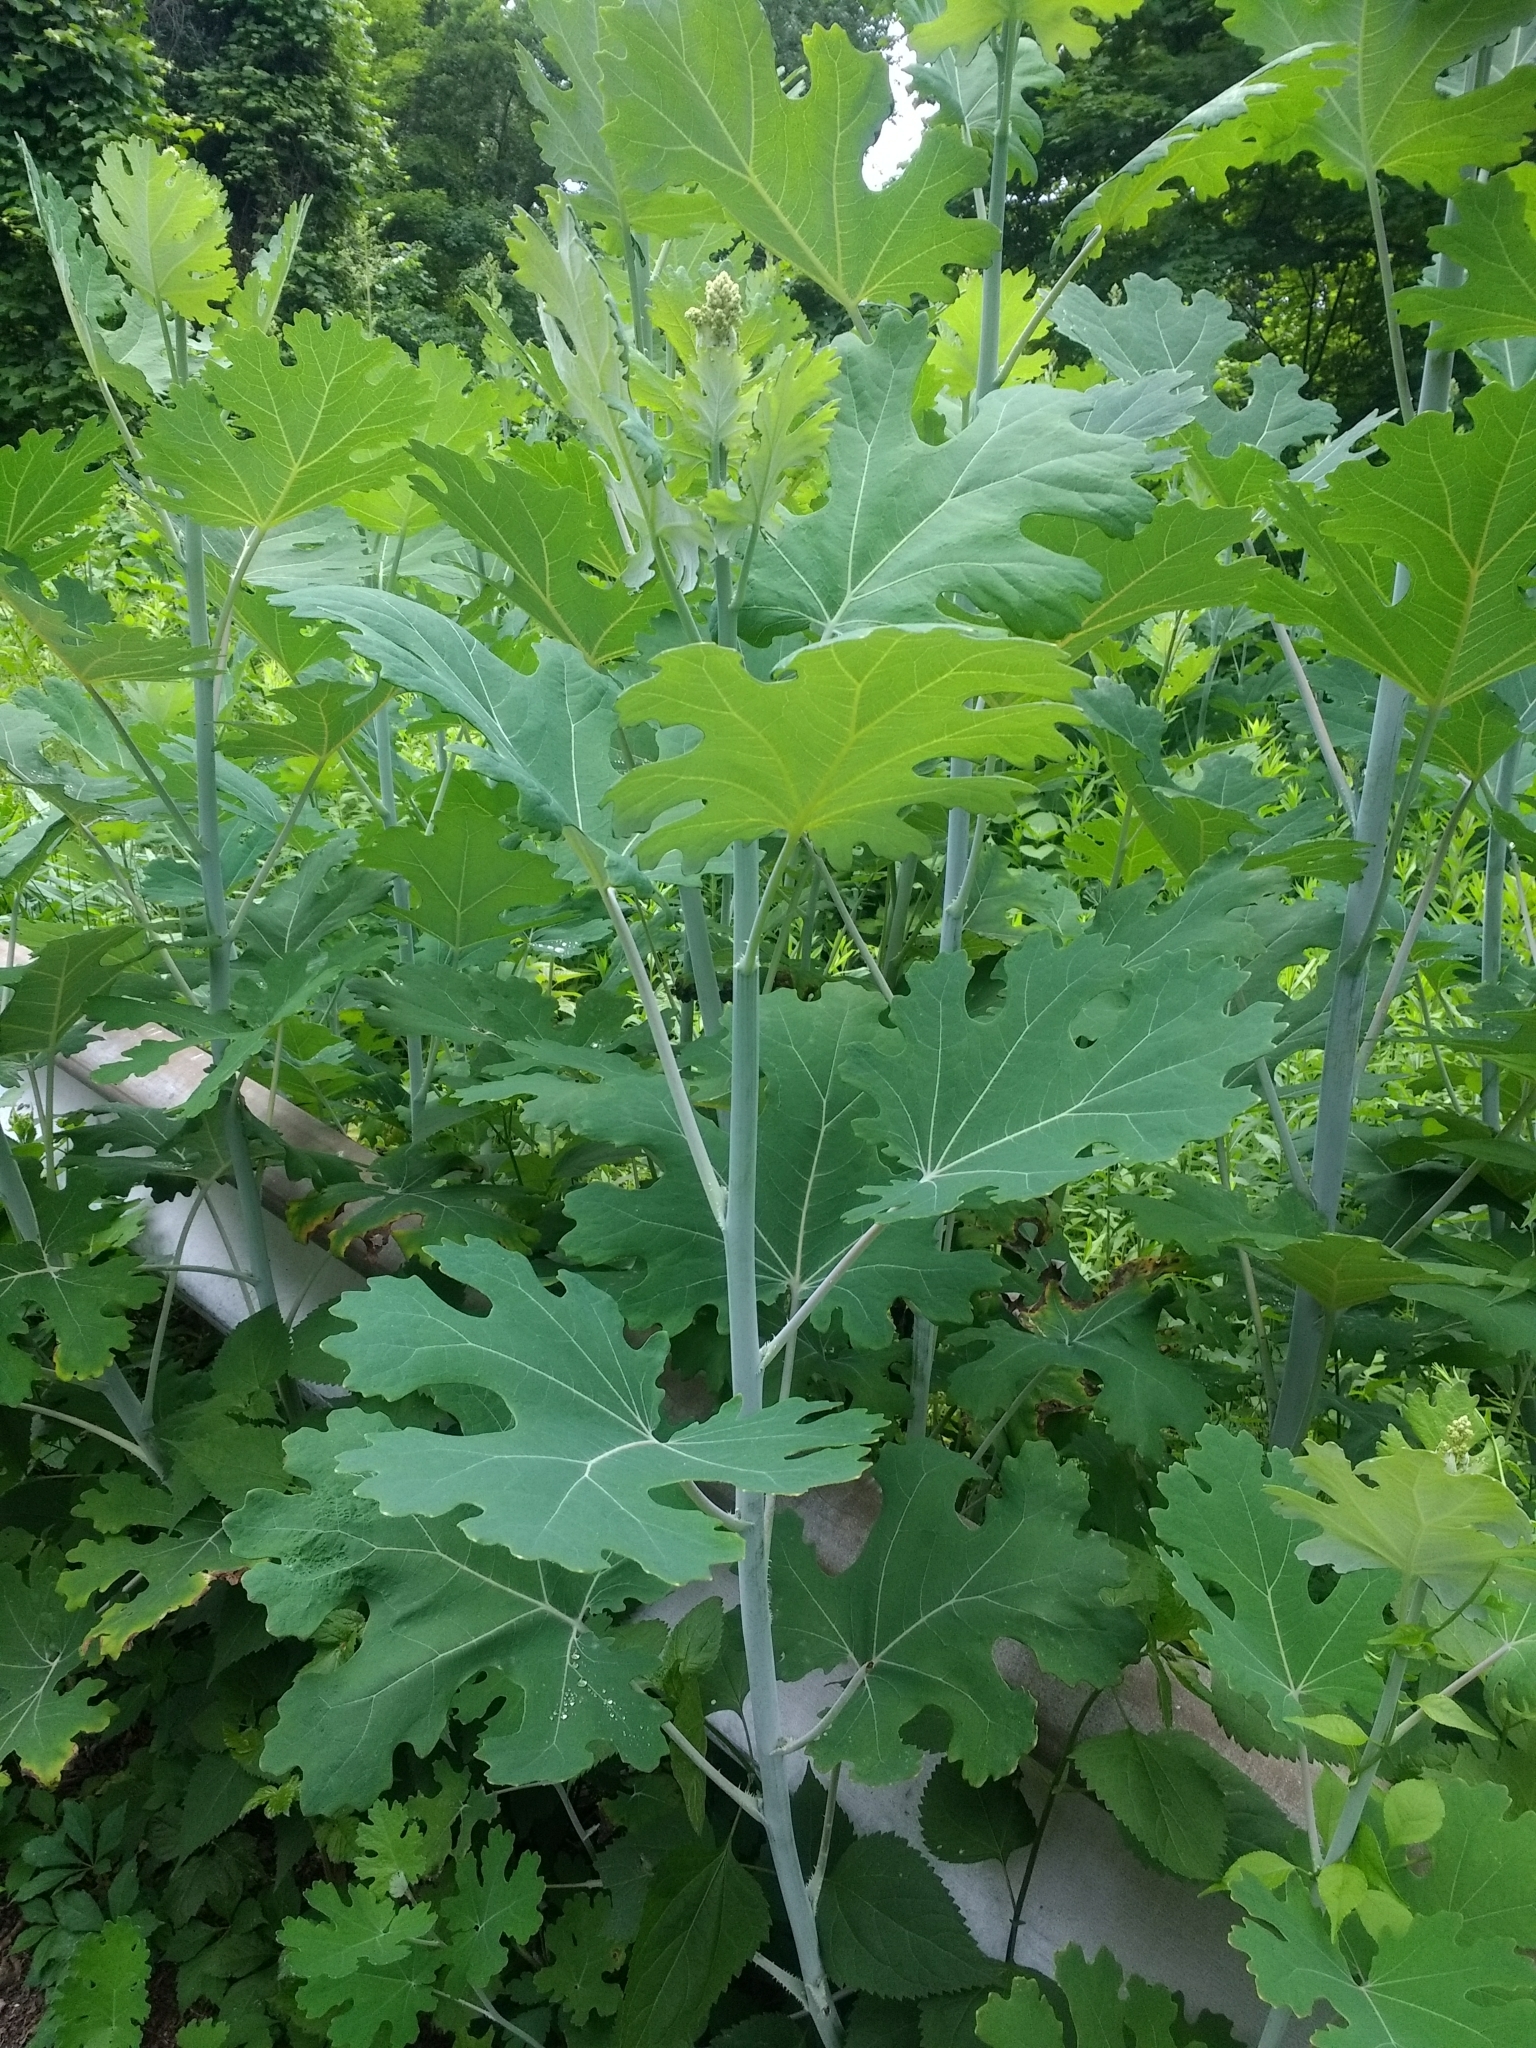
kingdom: Plantae
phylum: Tracheophyta
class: Magnoliopsida
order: Ranunculales
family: Papaveraceae
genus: Macleaya
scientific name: Macleaya cordata
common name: Plume poppy
